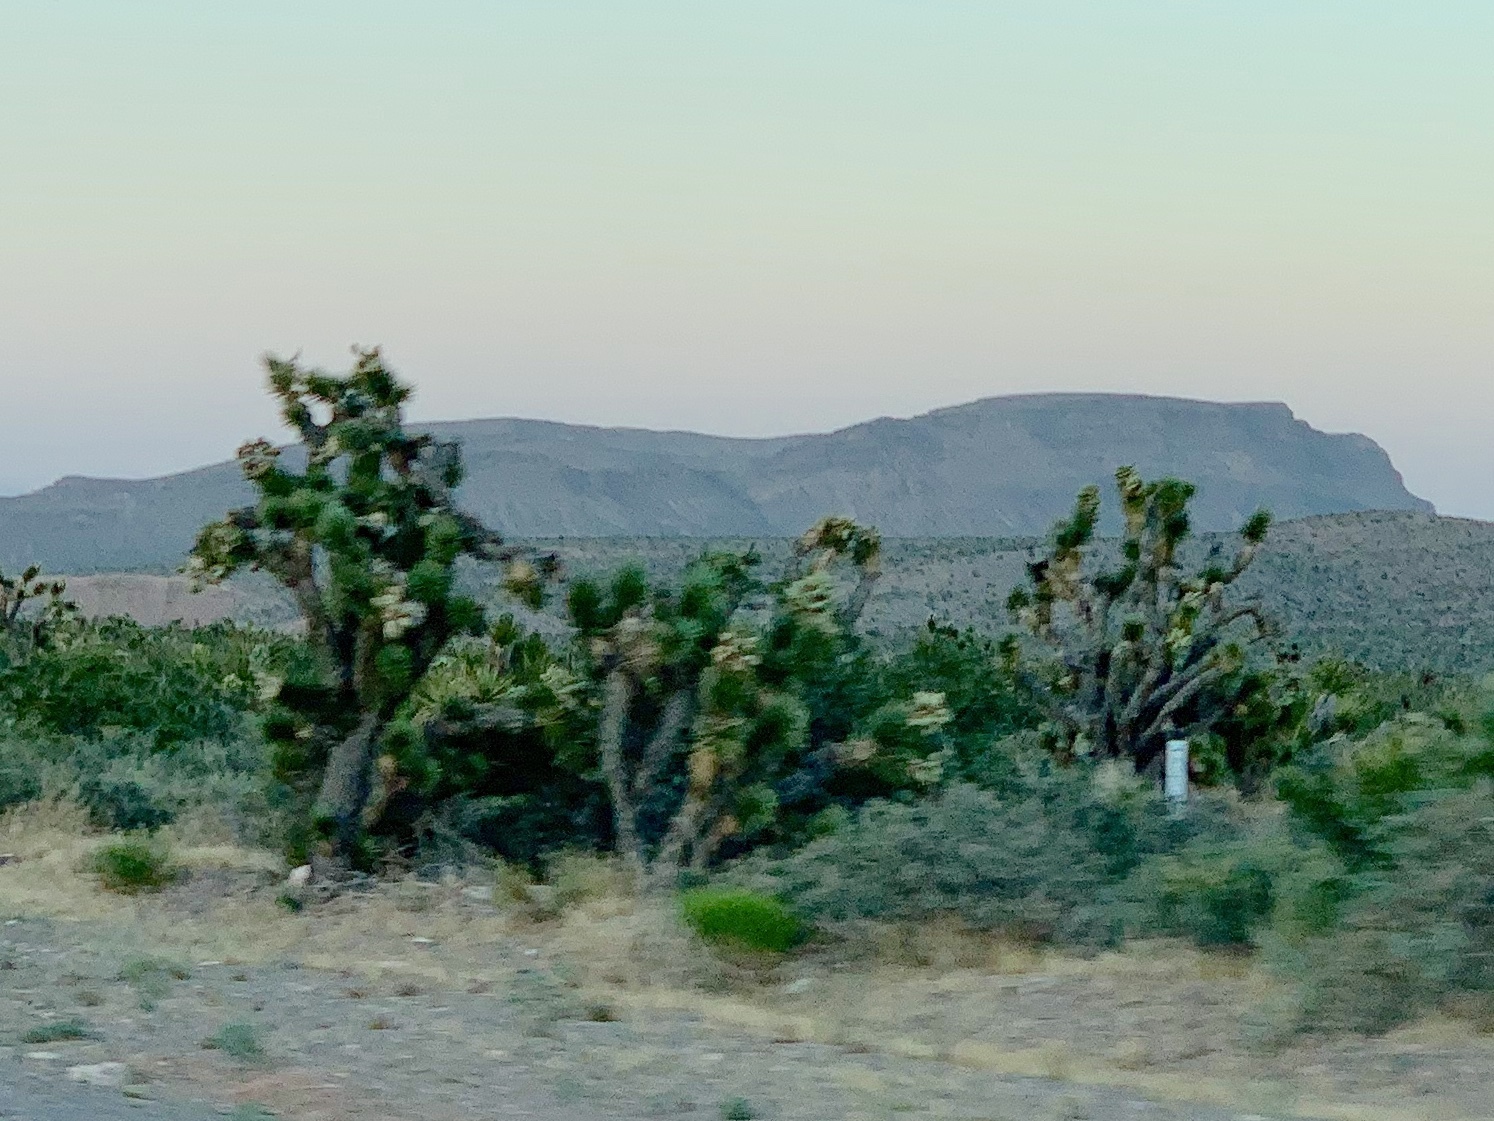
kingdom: Plantae
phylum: Tracheophyta
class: Liliopsida
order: Asparagales
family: Asparagaceae
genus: Yucca
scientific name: Yucca brevifolia
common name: Joshua tree
